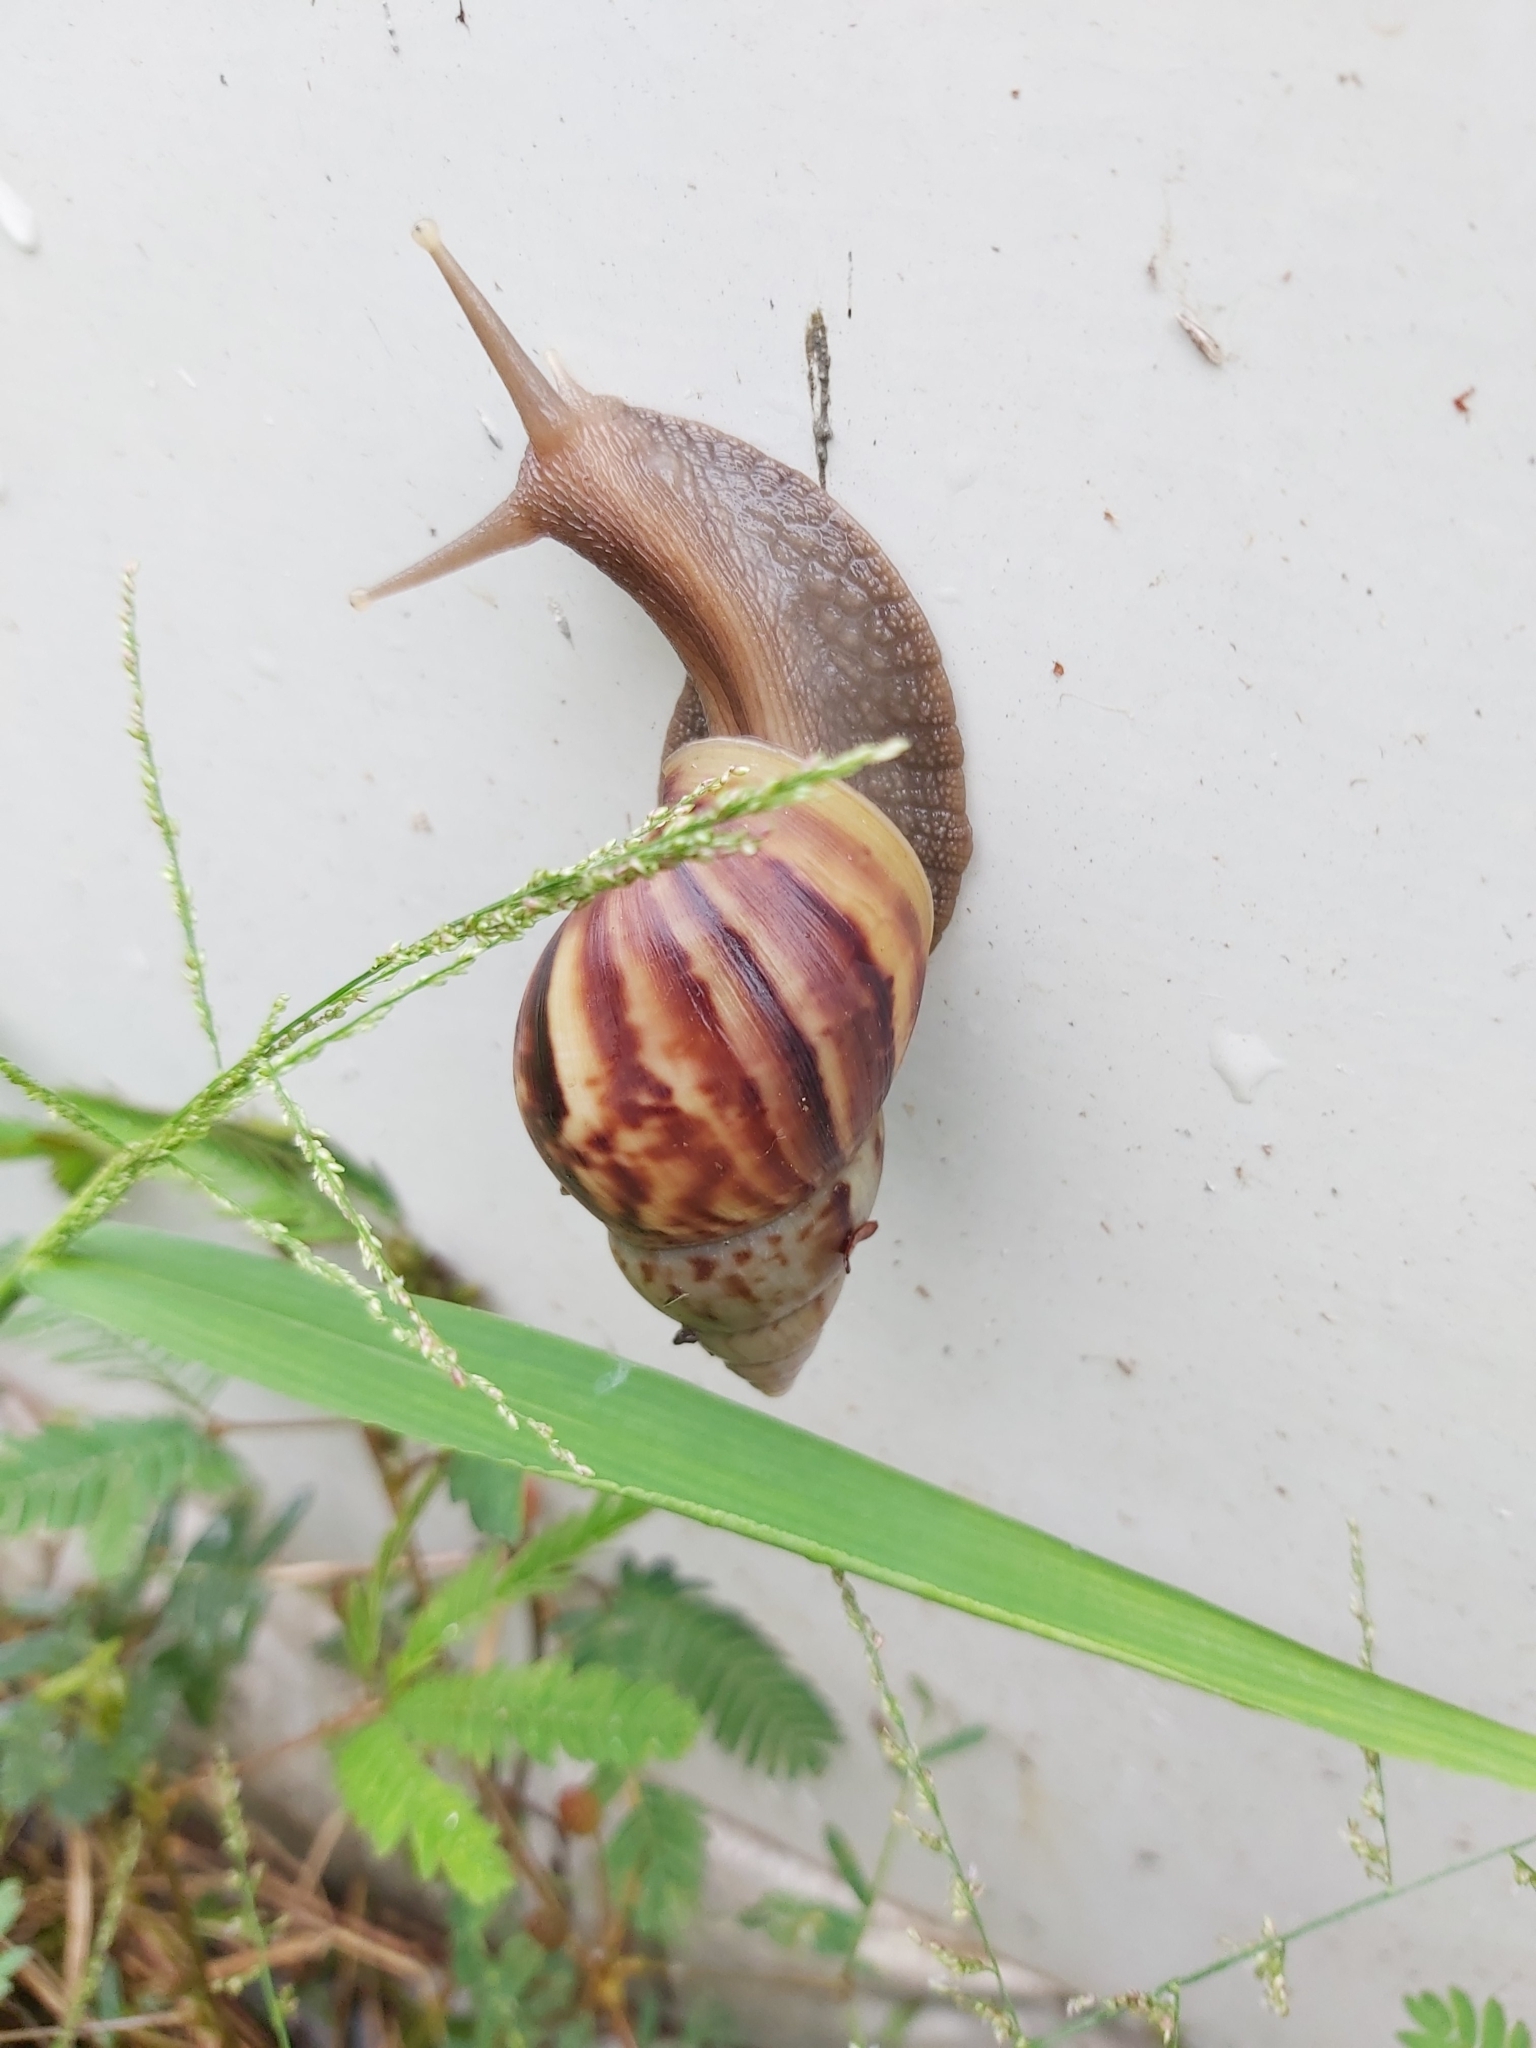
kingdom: Animalia
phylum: Mollusca
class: Gastropoda
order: Stylommatophora
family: Achatinidae
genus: Lissachatina
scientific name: Lissachatina fulica
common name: Giant african snail
